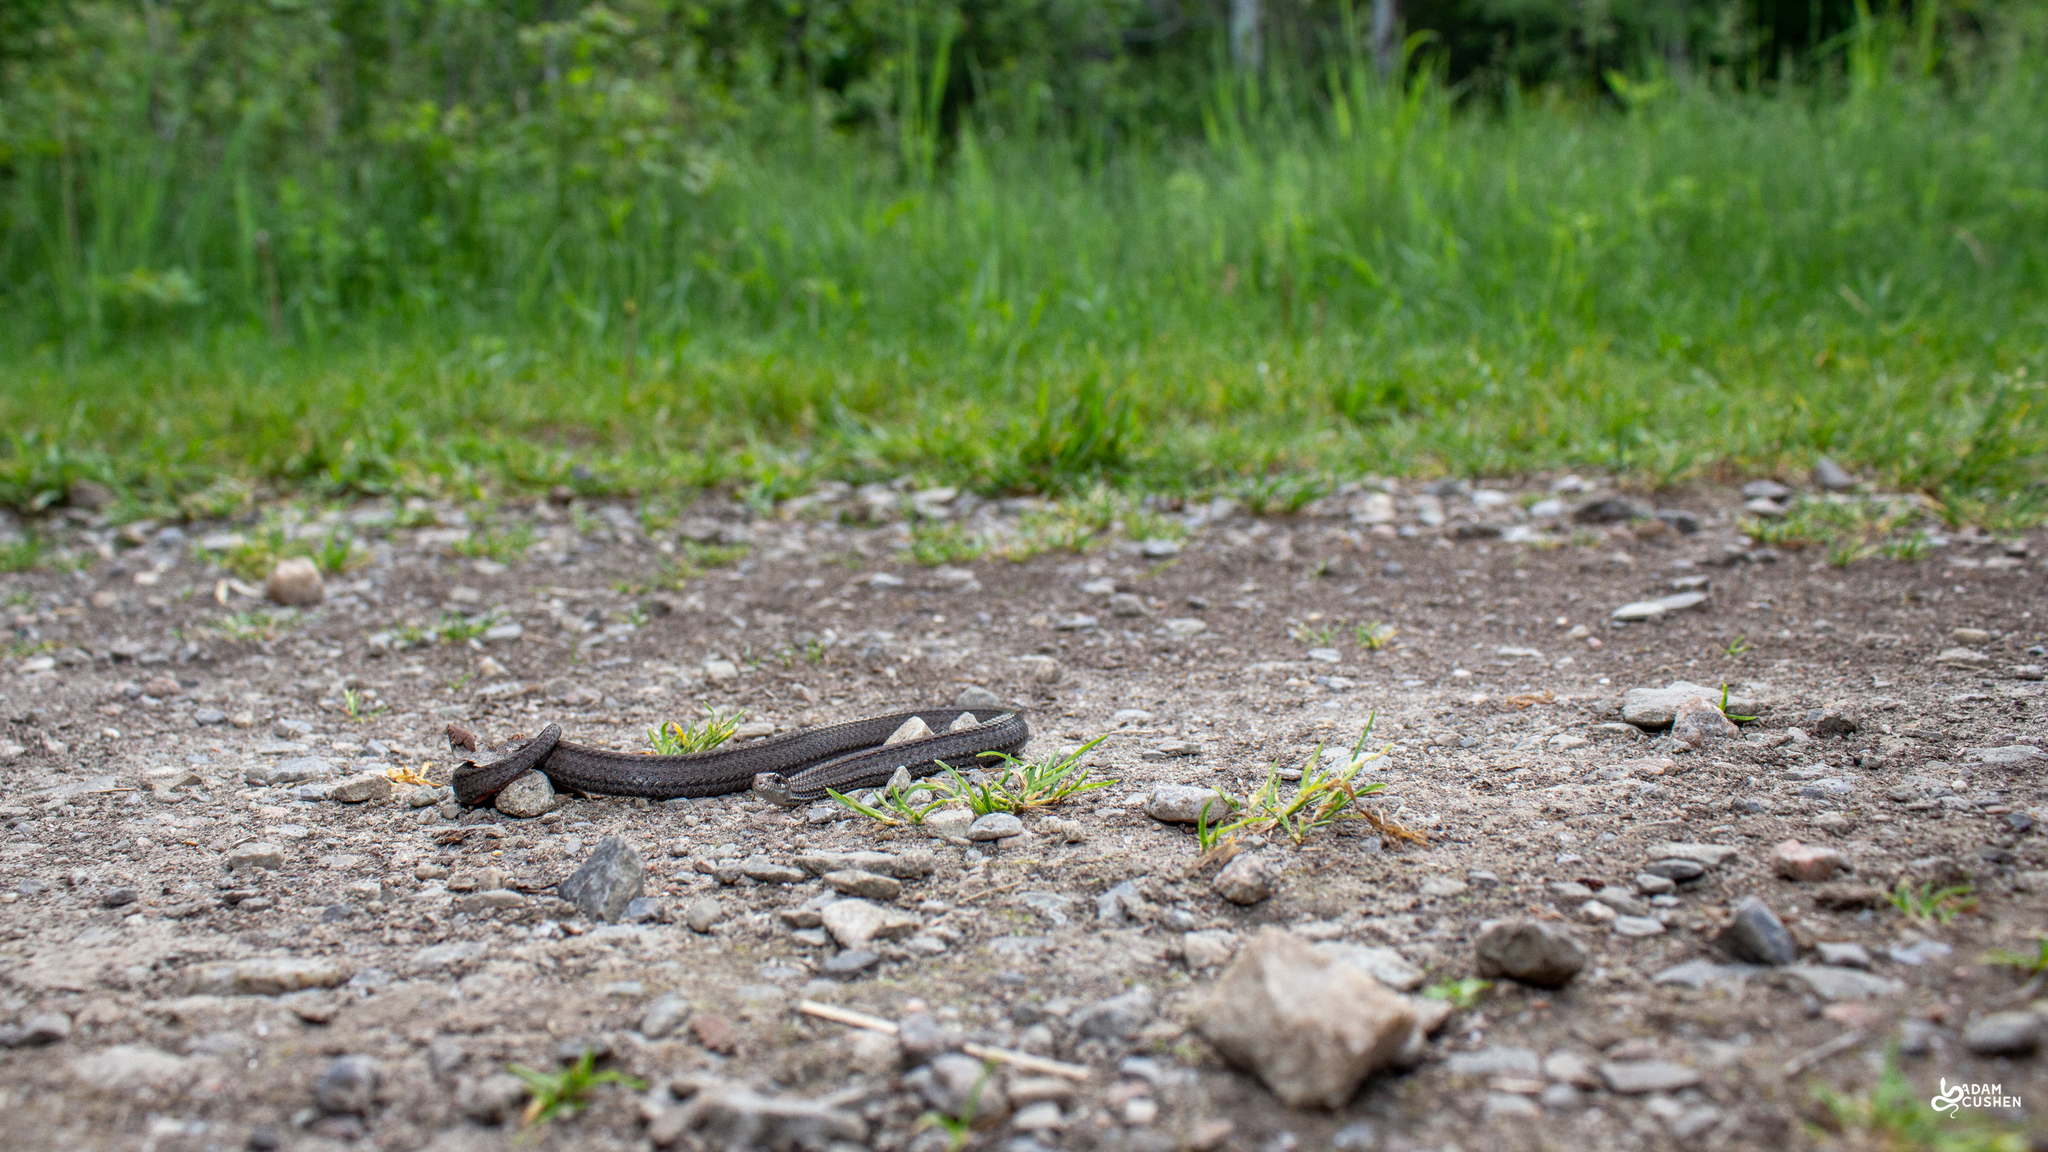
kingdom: Animalia
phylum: Chordata
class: Squamata
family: Colubridae
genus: Storeria
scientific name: Storeria occipitomaculata
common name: Redbelly snake
